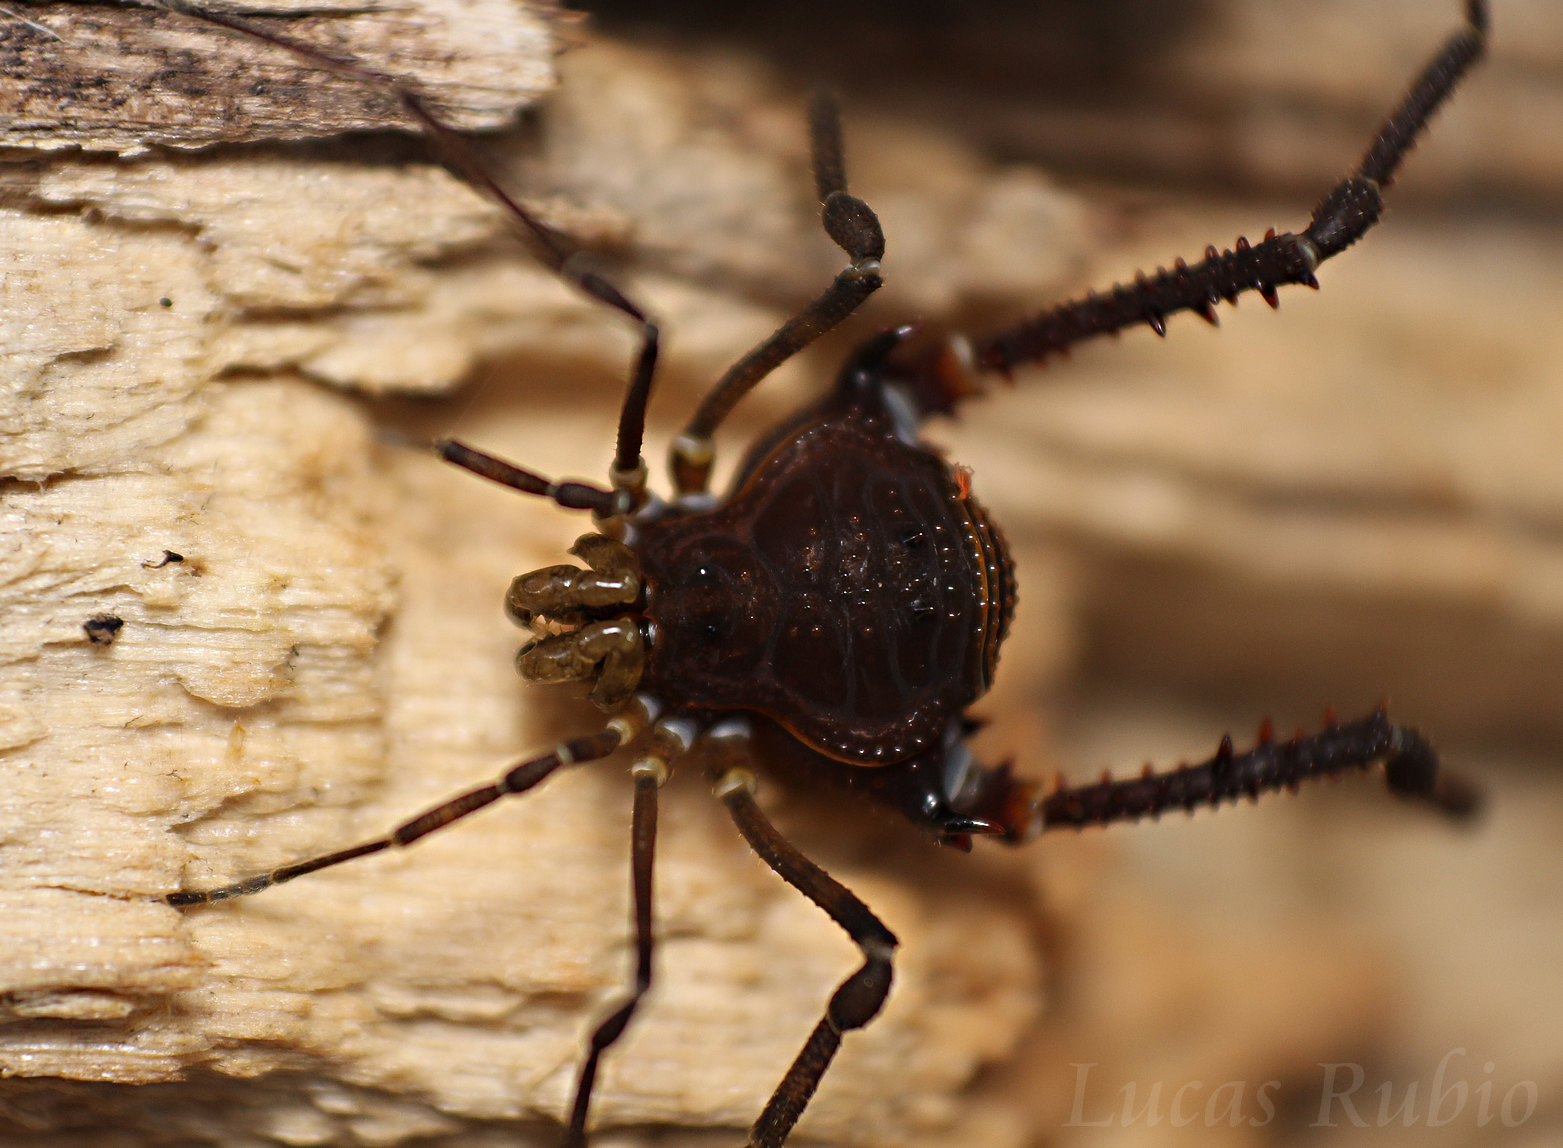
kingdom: Animalia
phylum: Arthropoda
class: Arachnida
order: Opiliones
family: Gonyleptidae
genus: Opisthoplatus
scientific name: Opisthoplatus prospicuus
